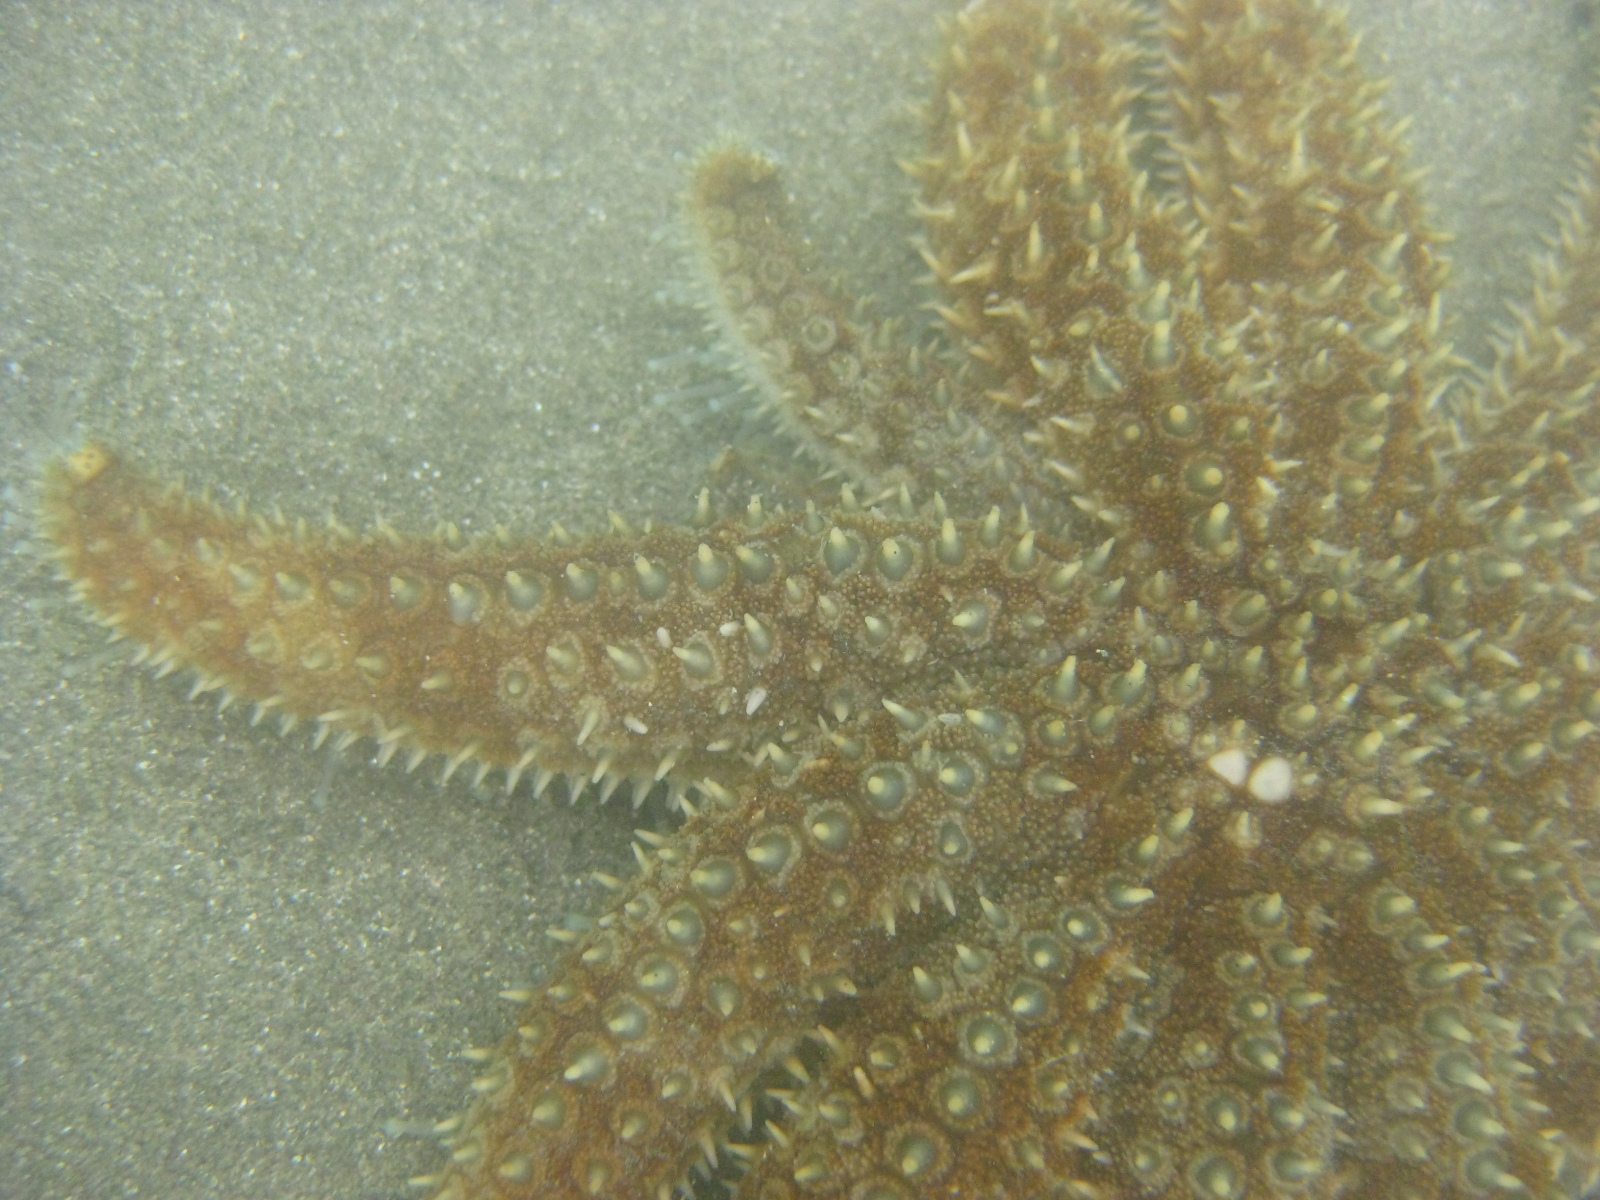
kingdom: Animalia
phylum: Echinodermata
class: Asteroidea
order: Forcipulatida
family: Asteriidae
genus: Coscinasterias
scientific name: Coscinasterias muricata
